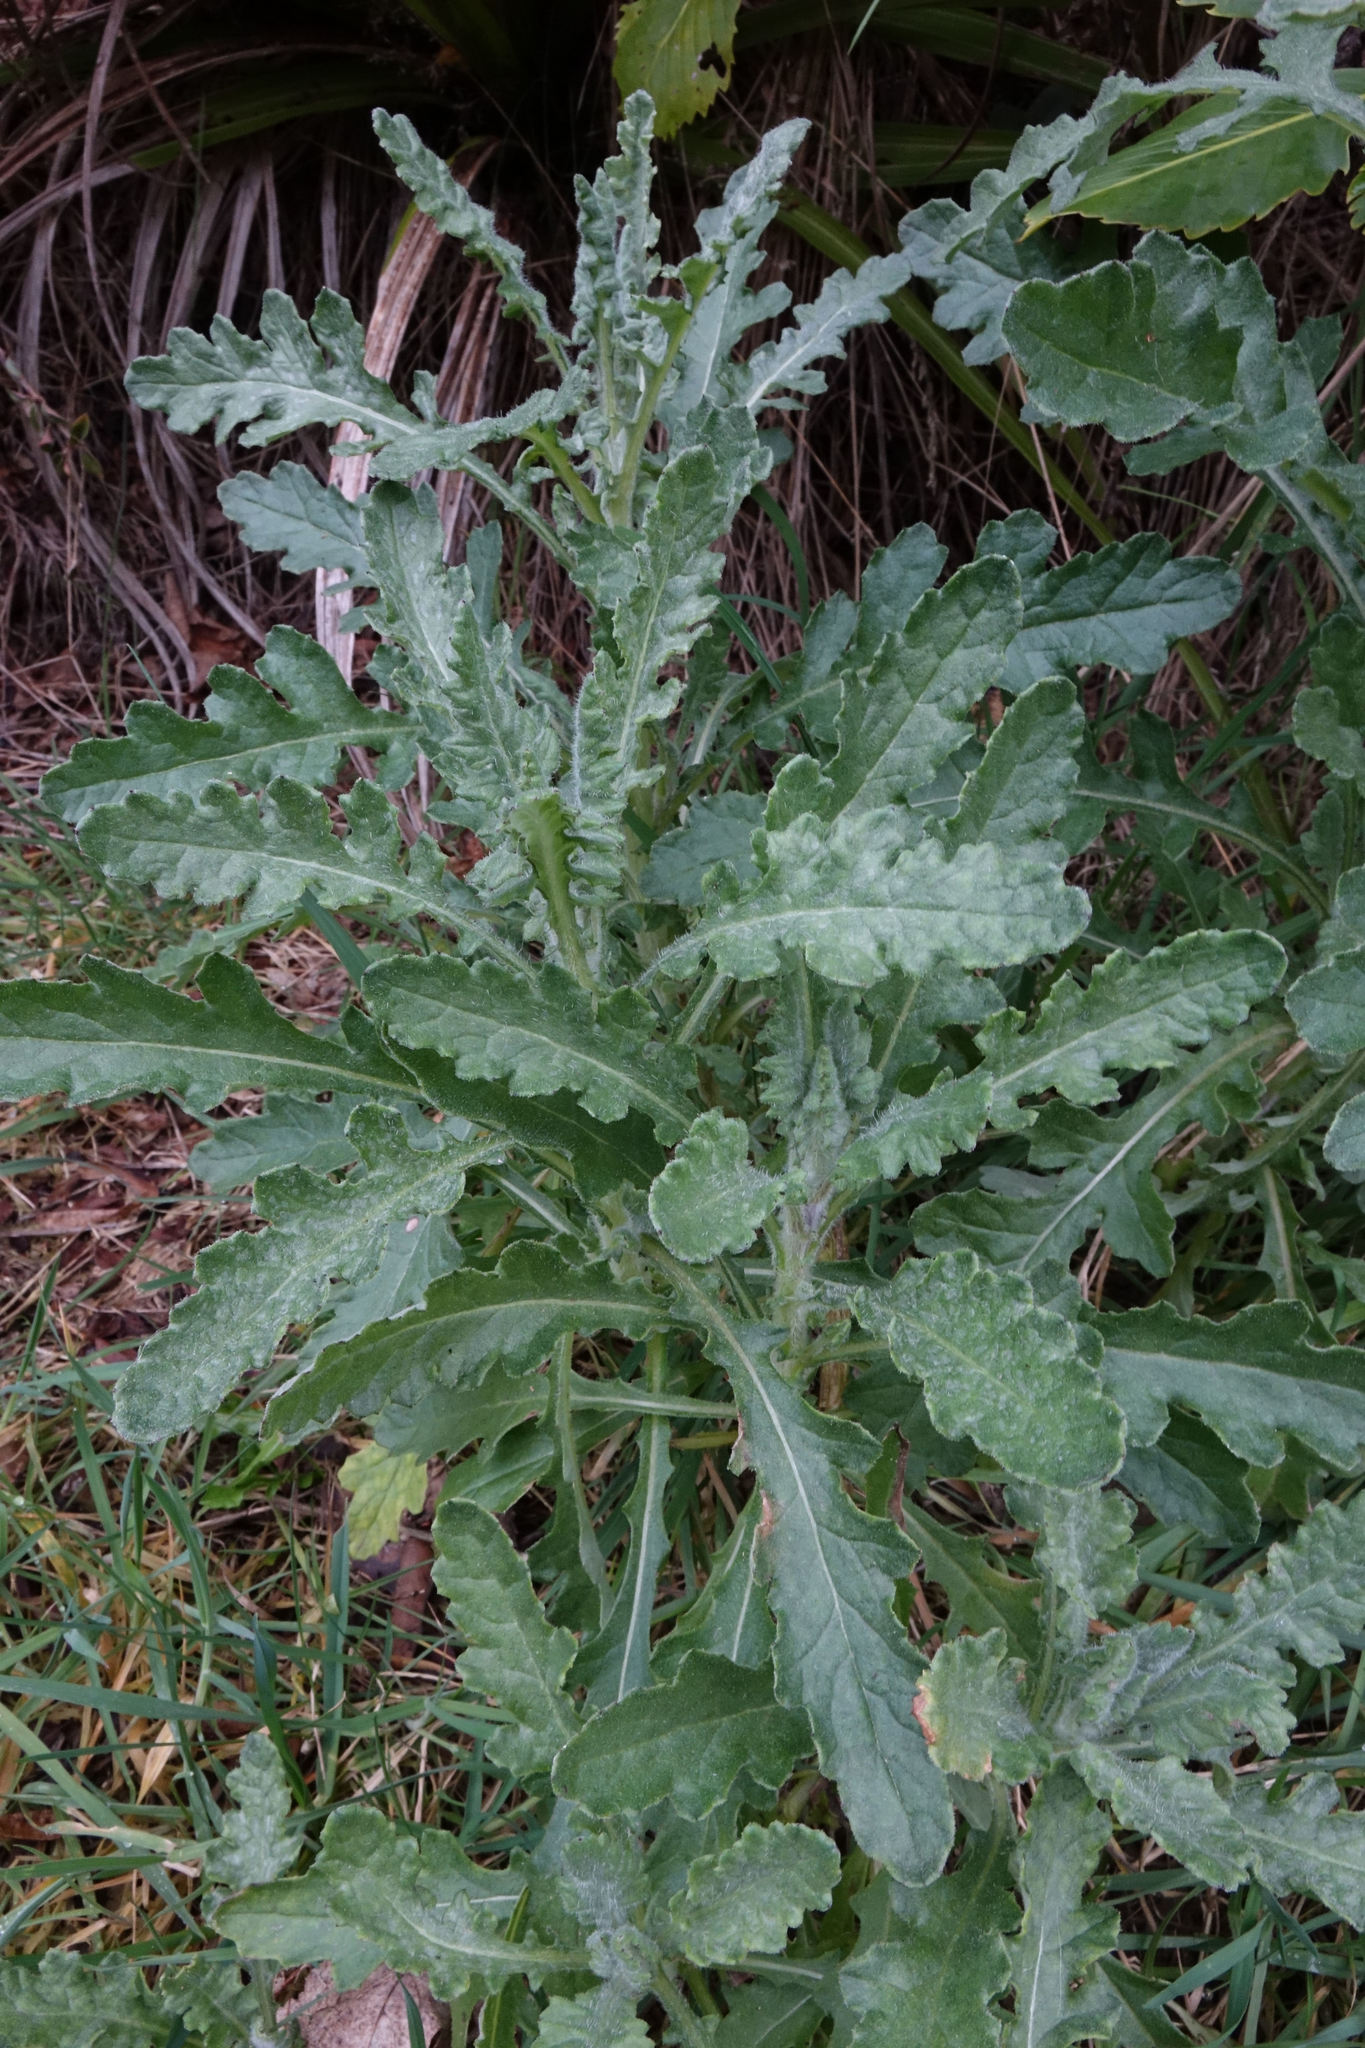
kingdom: Plantae
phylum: Tracheophyta
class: Magnoliopsida
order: Asterales
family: Asteraceae
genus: Senecio
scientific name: Senecio glomeratus
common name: Cutleaf burnweed
